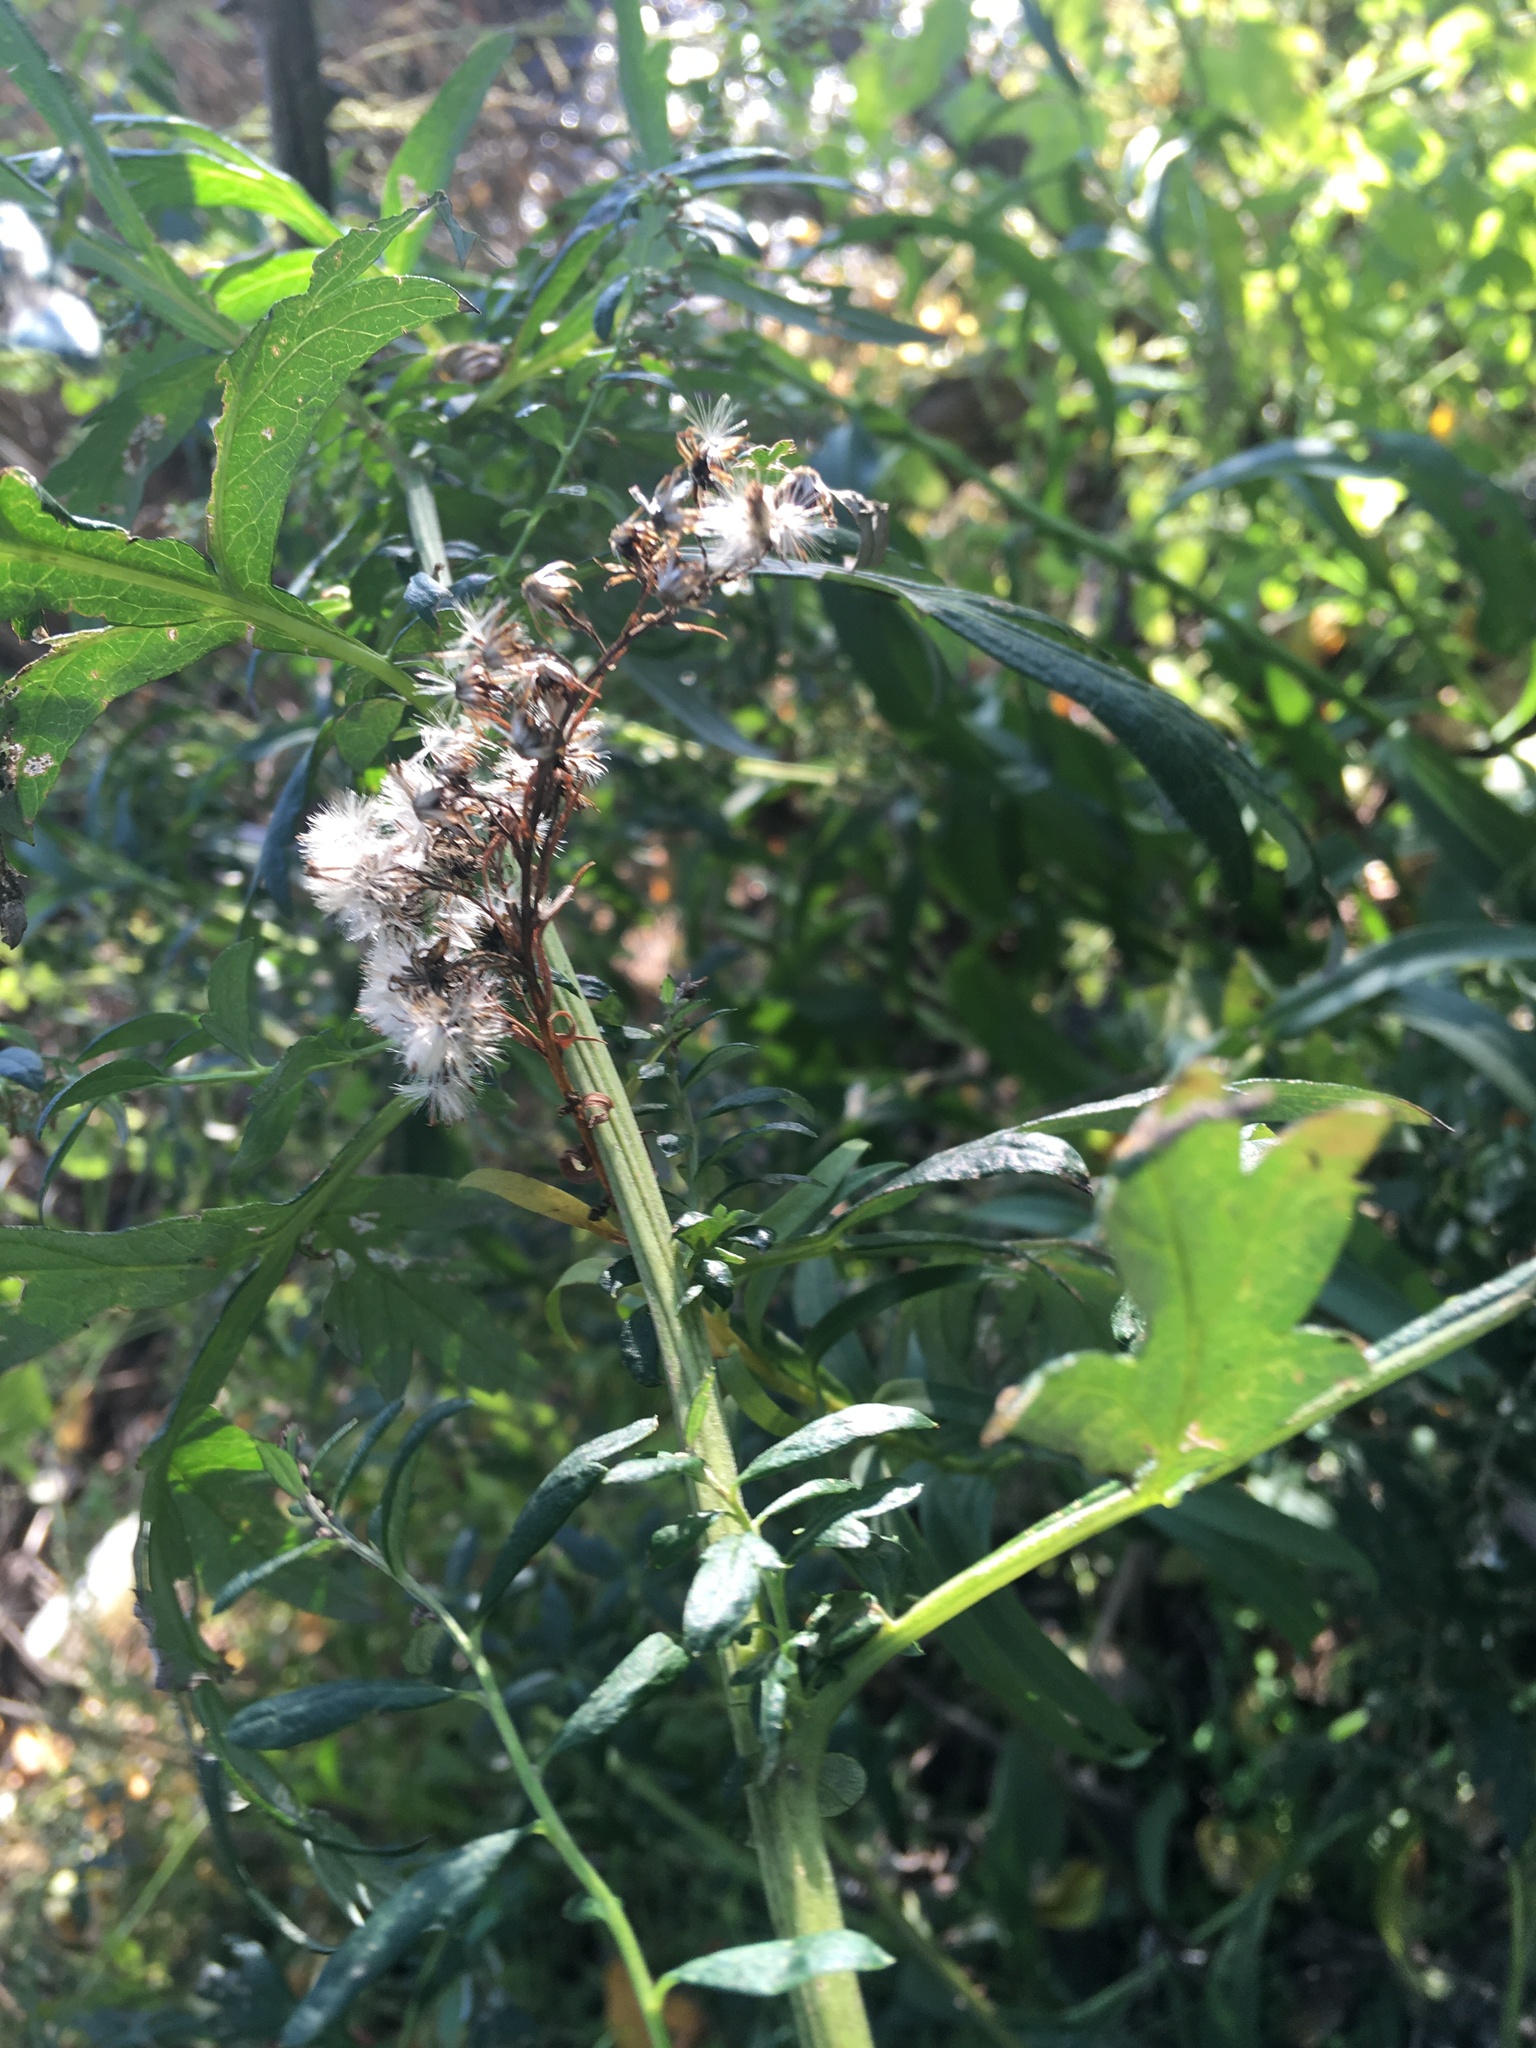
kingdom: Plantae
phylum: Tracheophyta
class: Magnoliopsida
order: Asterales
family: Asteraceae
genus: Artemisia
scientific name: Artemisia vulgaris
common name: Mugwort
